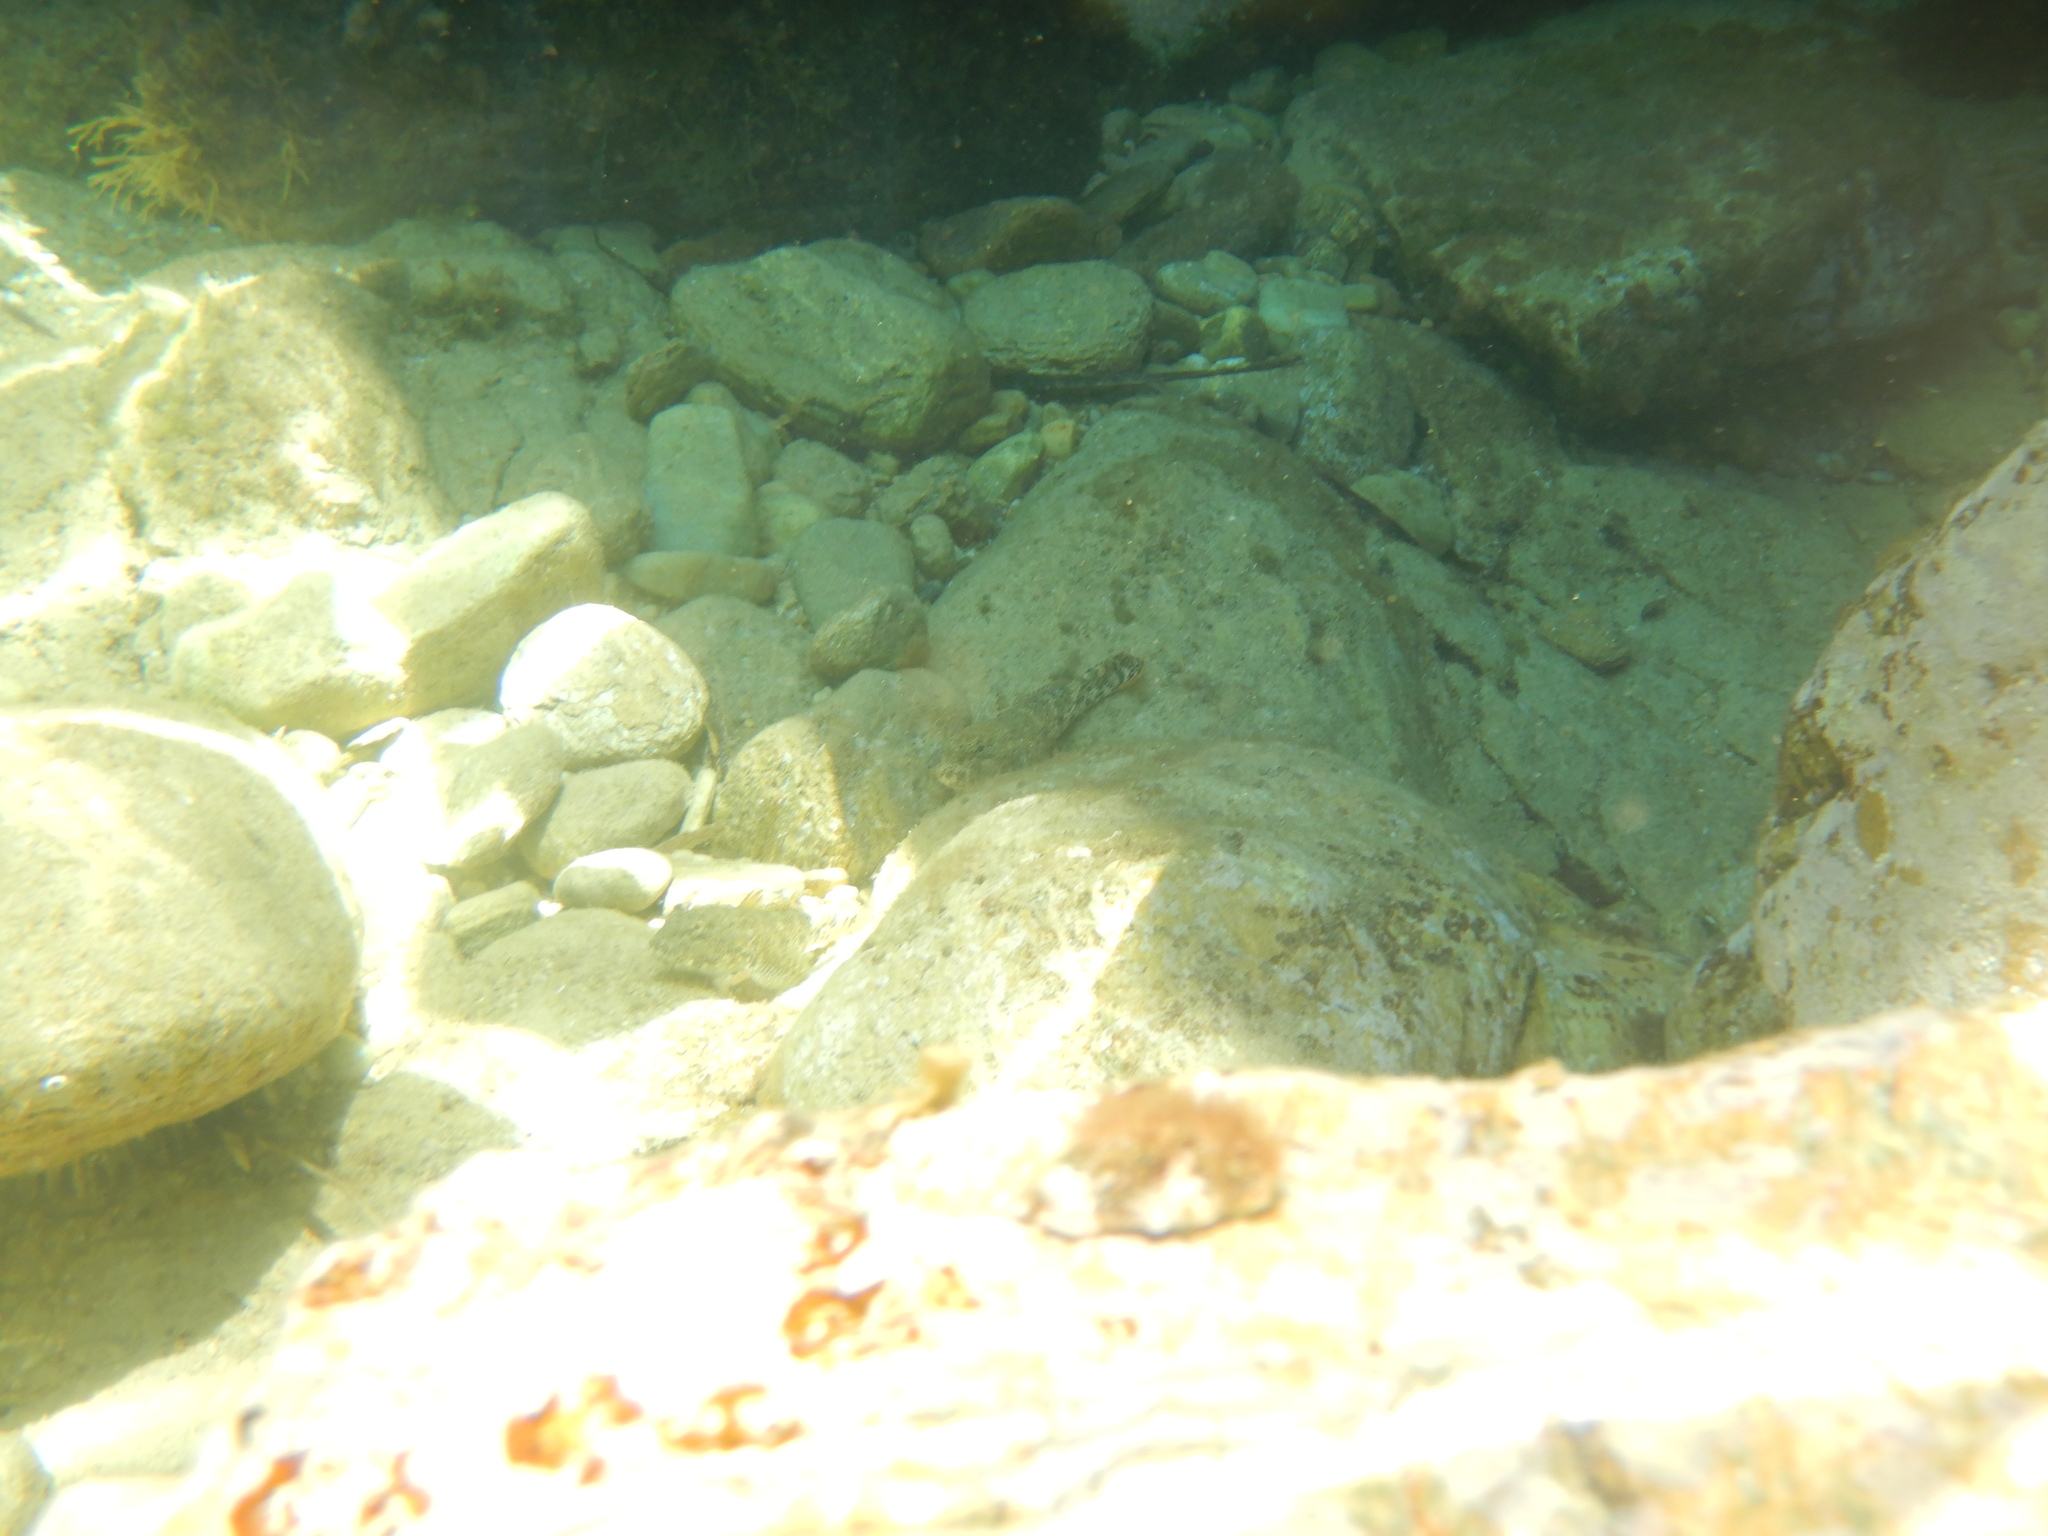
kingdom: Animalia
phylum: Chordata
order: Perciformes
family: Gobiidae
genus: Gobius
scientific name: Gobius cobitis
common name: Giant goby
